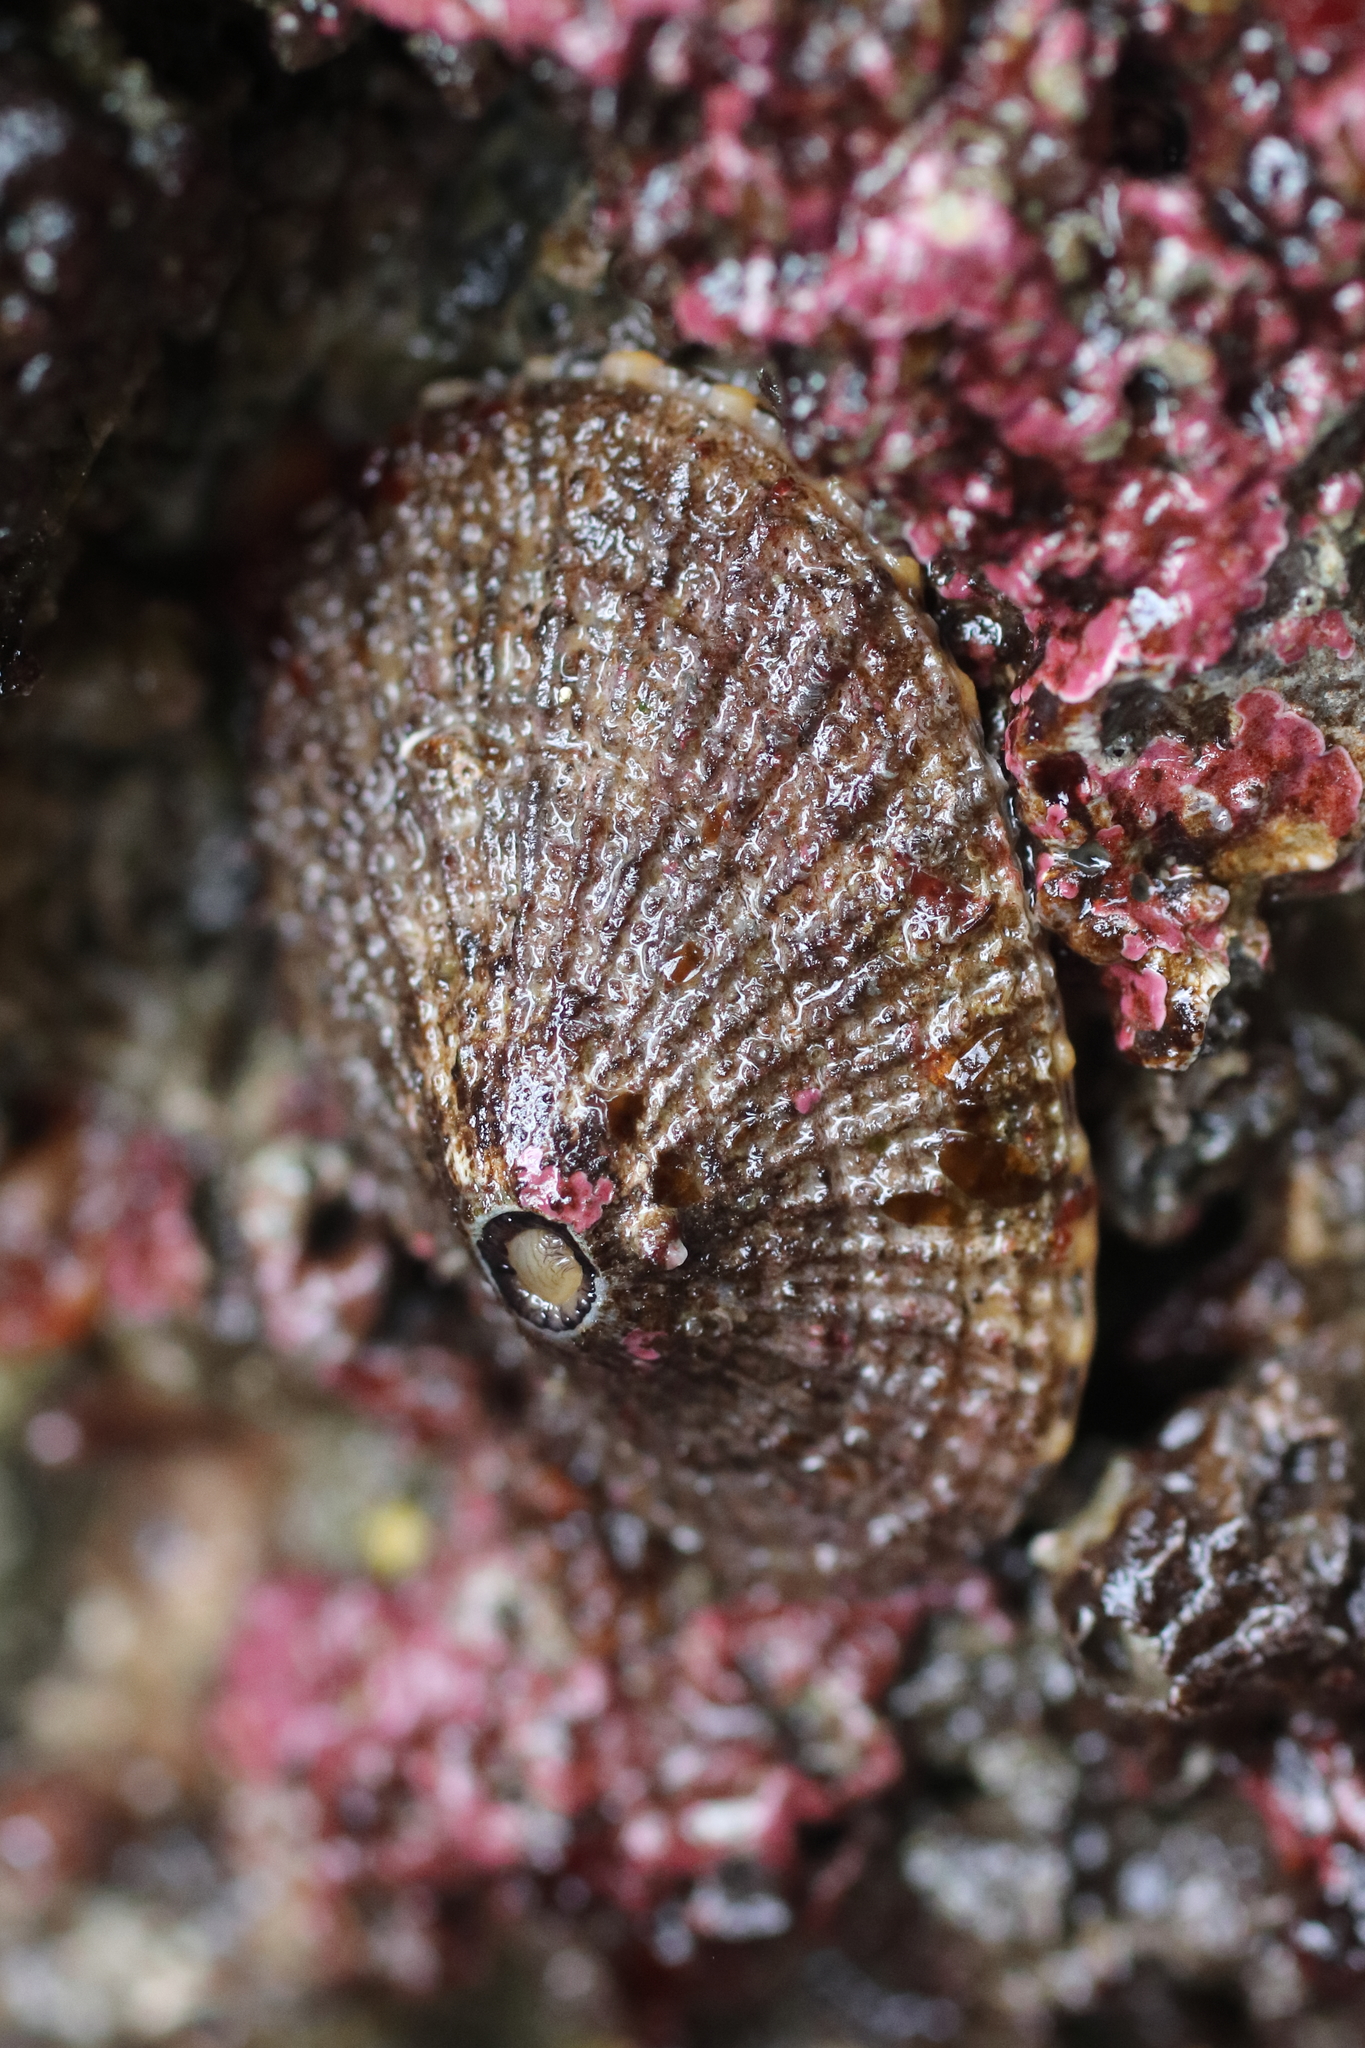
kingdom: Animalia
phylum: Mollusca
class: Gastropoda
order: Lepetellida
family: Fissurellidae
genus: Diodora
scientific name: Diodora aspera
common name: Rough keyhole limpet
